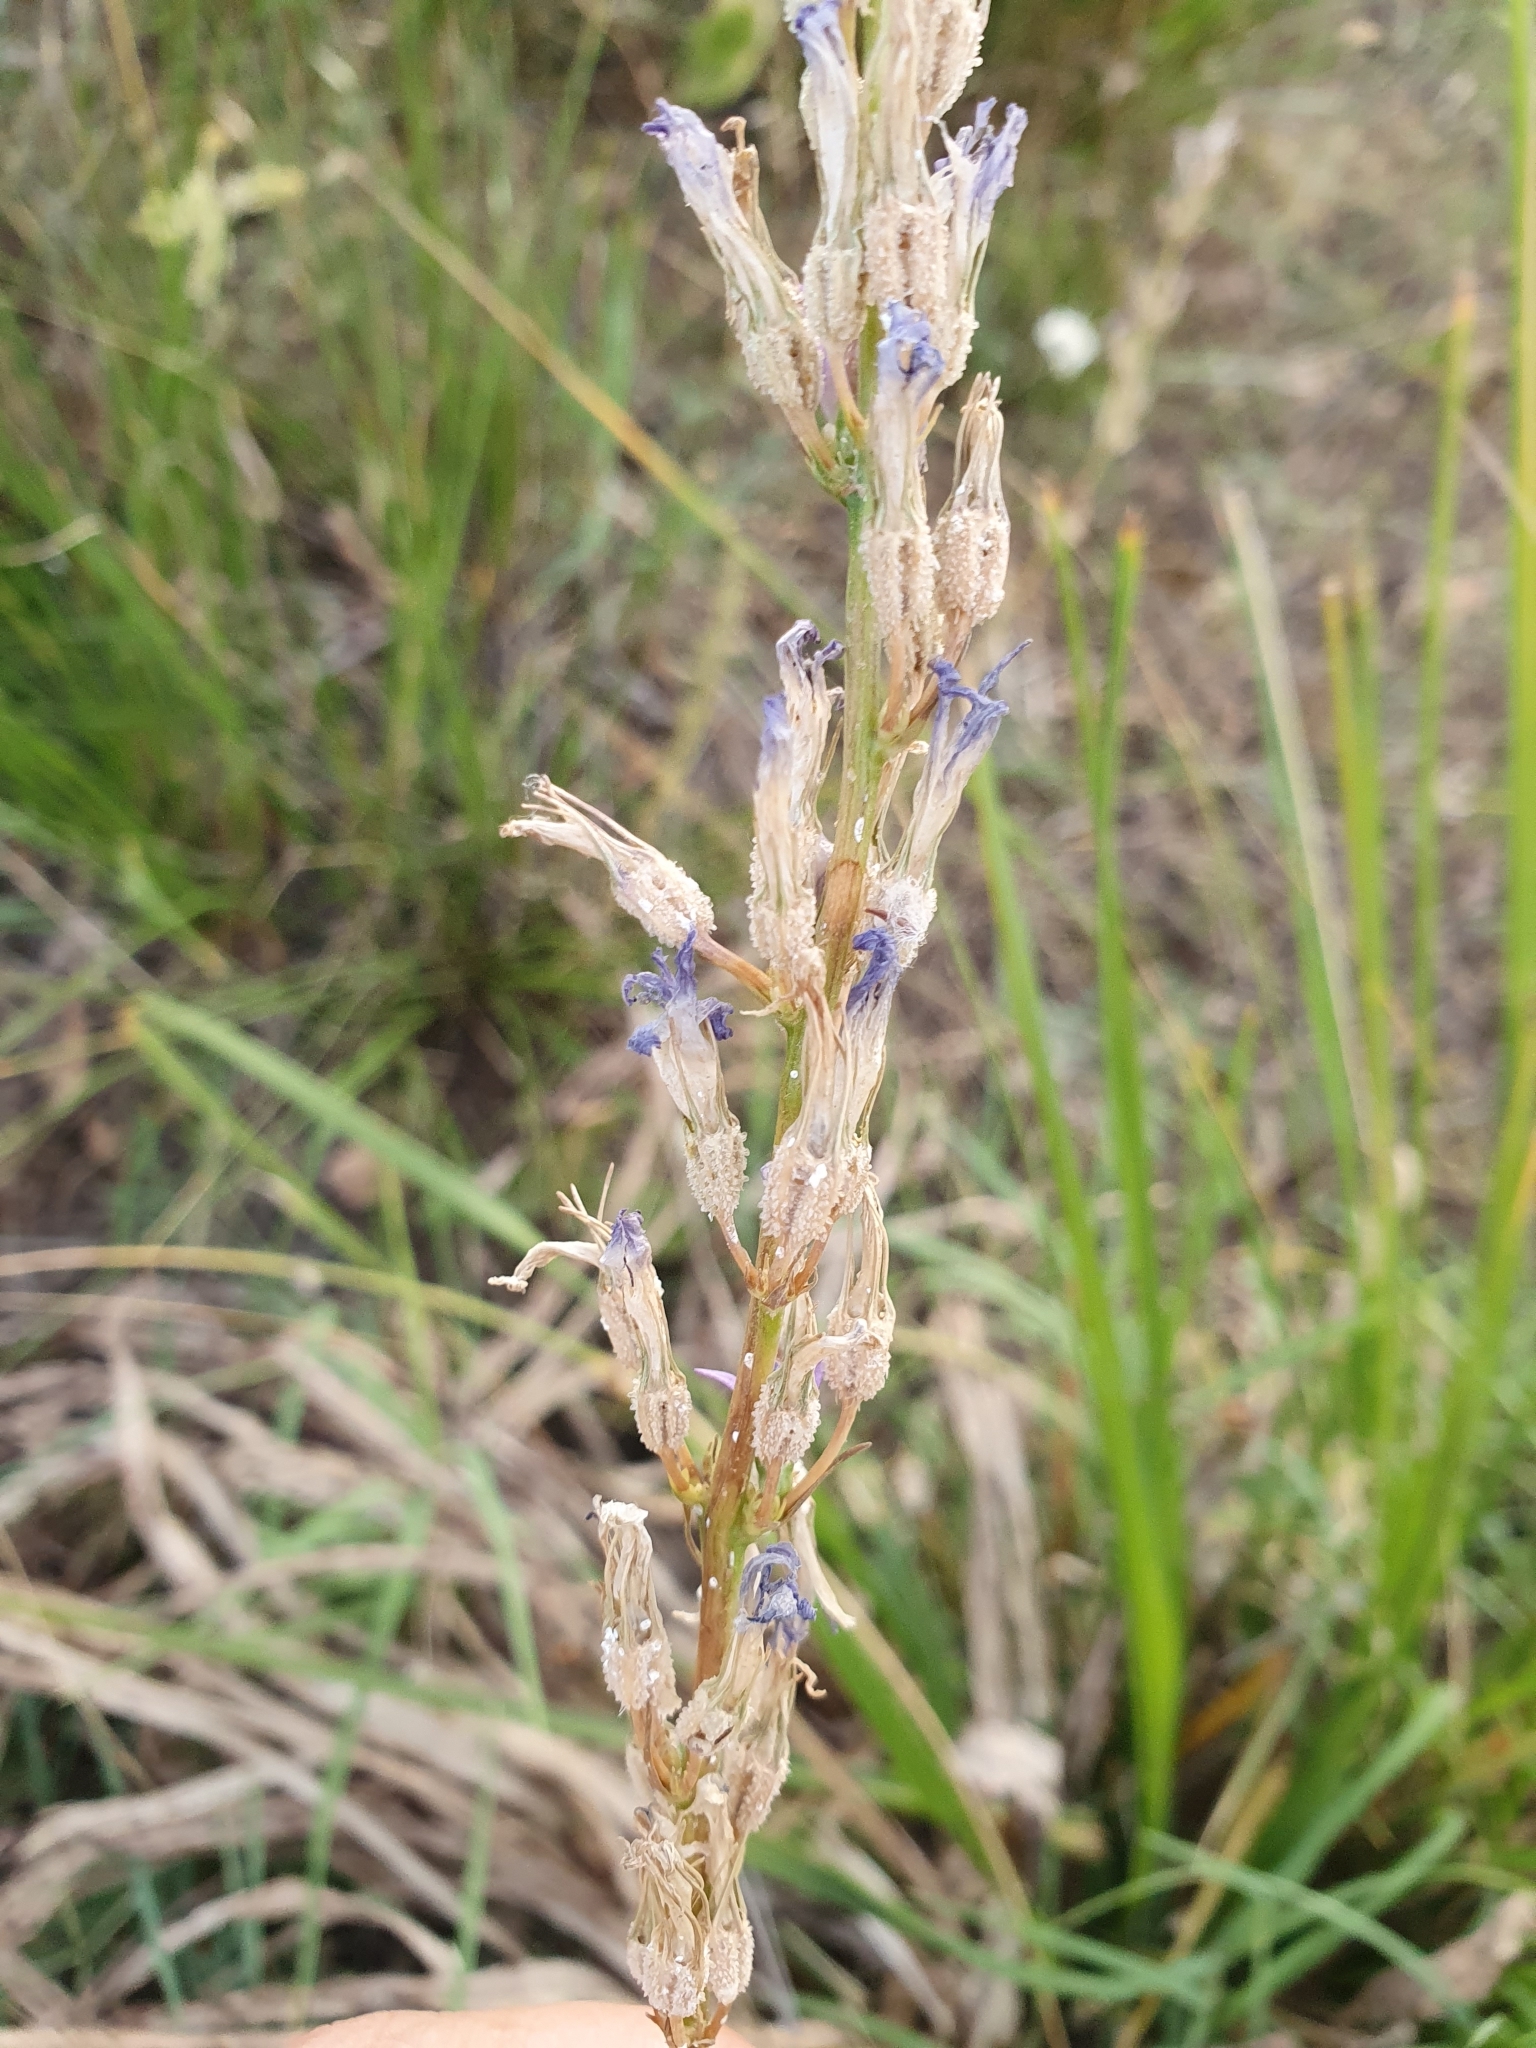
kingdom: Plantae
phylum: Tracheophyta
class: Magnoliopsida
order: Asterales
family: Campanulaceae
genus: Campanula
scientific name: Campanula rapunculus
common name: Rampion bellflower
